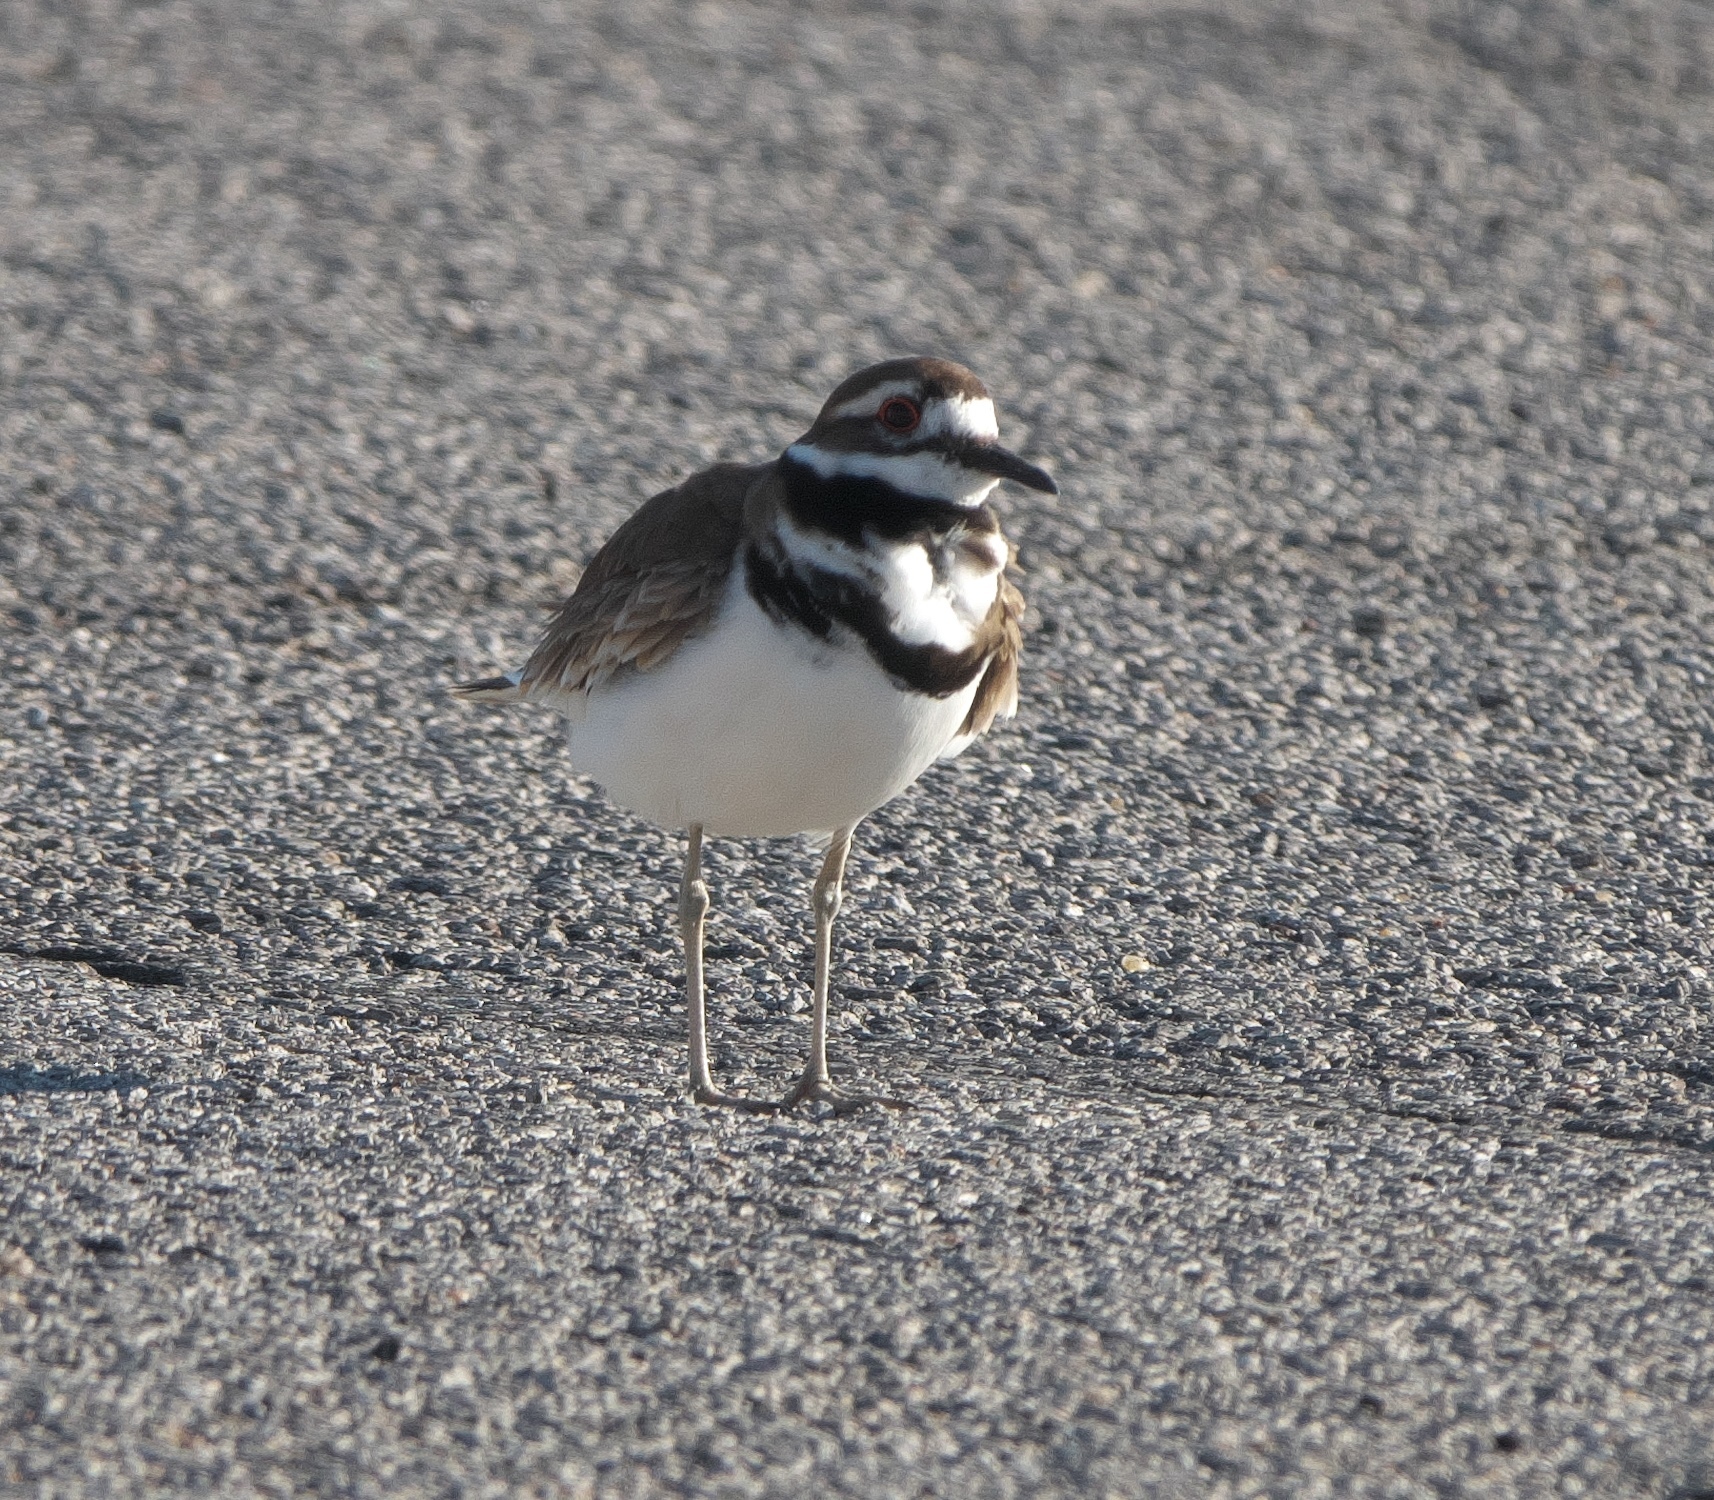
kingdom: Animalia
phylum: Chordata
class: Aves
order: Charadriiformes
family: Charadriidae
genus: Charadrius
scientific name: Charadrius vociferus
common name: Killdeer
